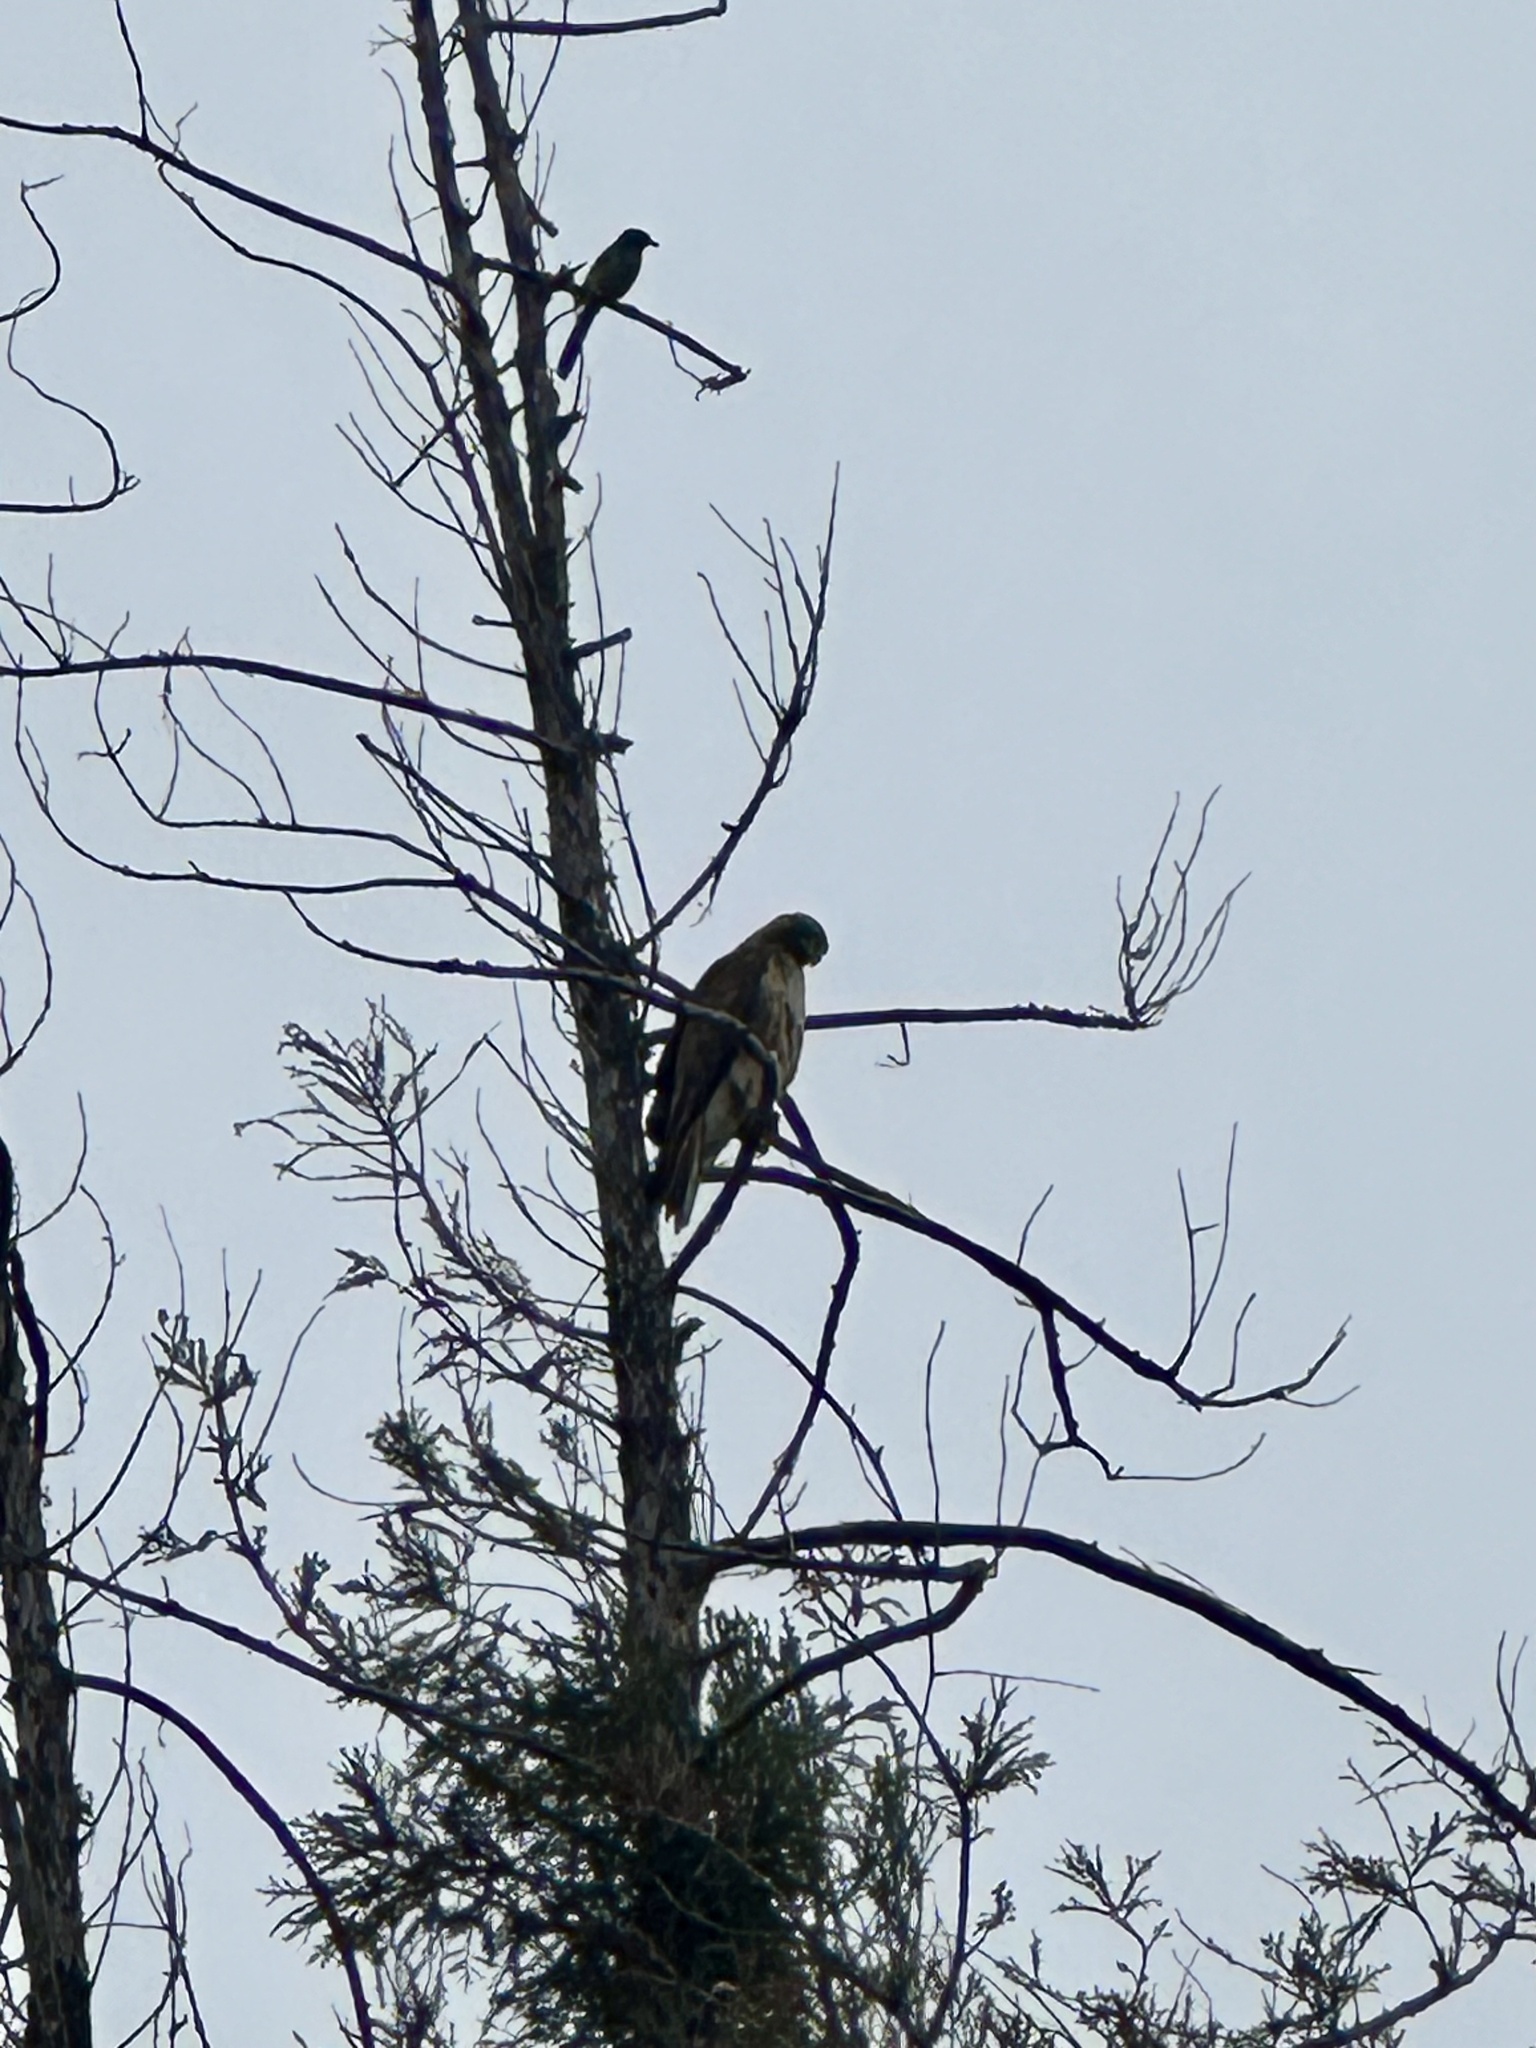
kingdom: Animalia
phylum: Chordata
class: Aves
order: Accipitriformes
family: Accipitridae
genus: Buteo
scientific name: Buteo jamaicensis
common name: Red-tailed hawk
